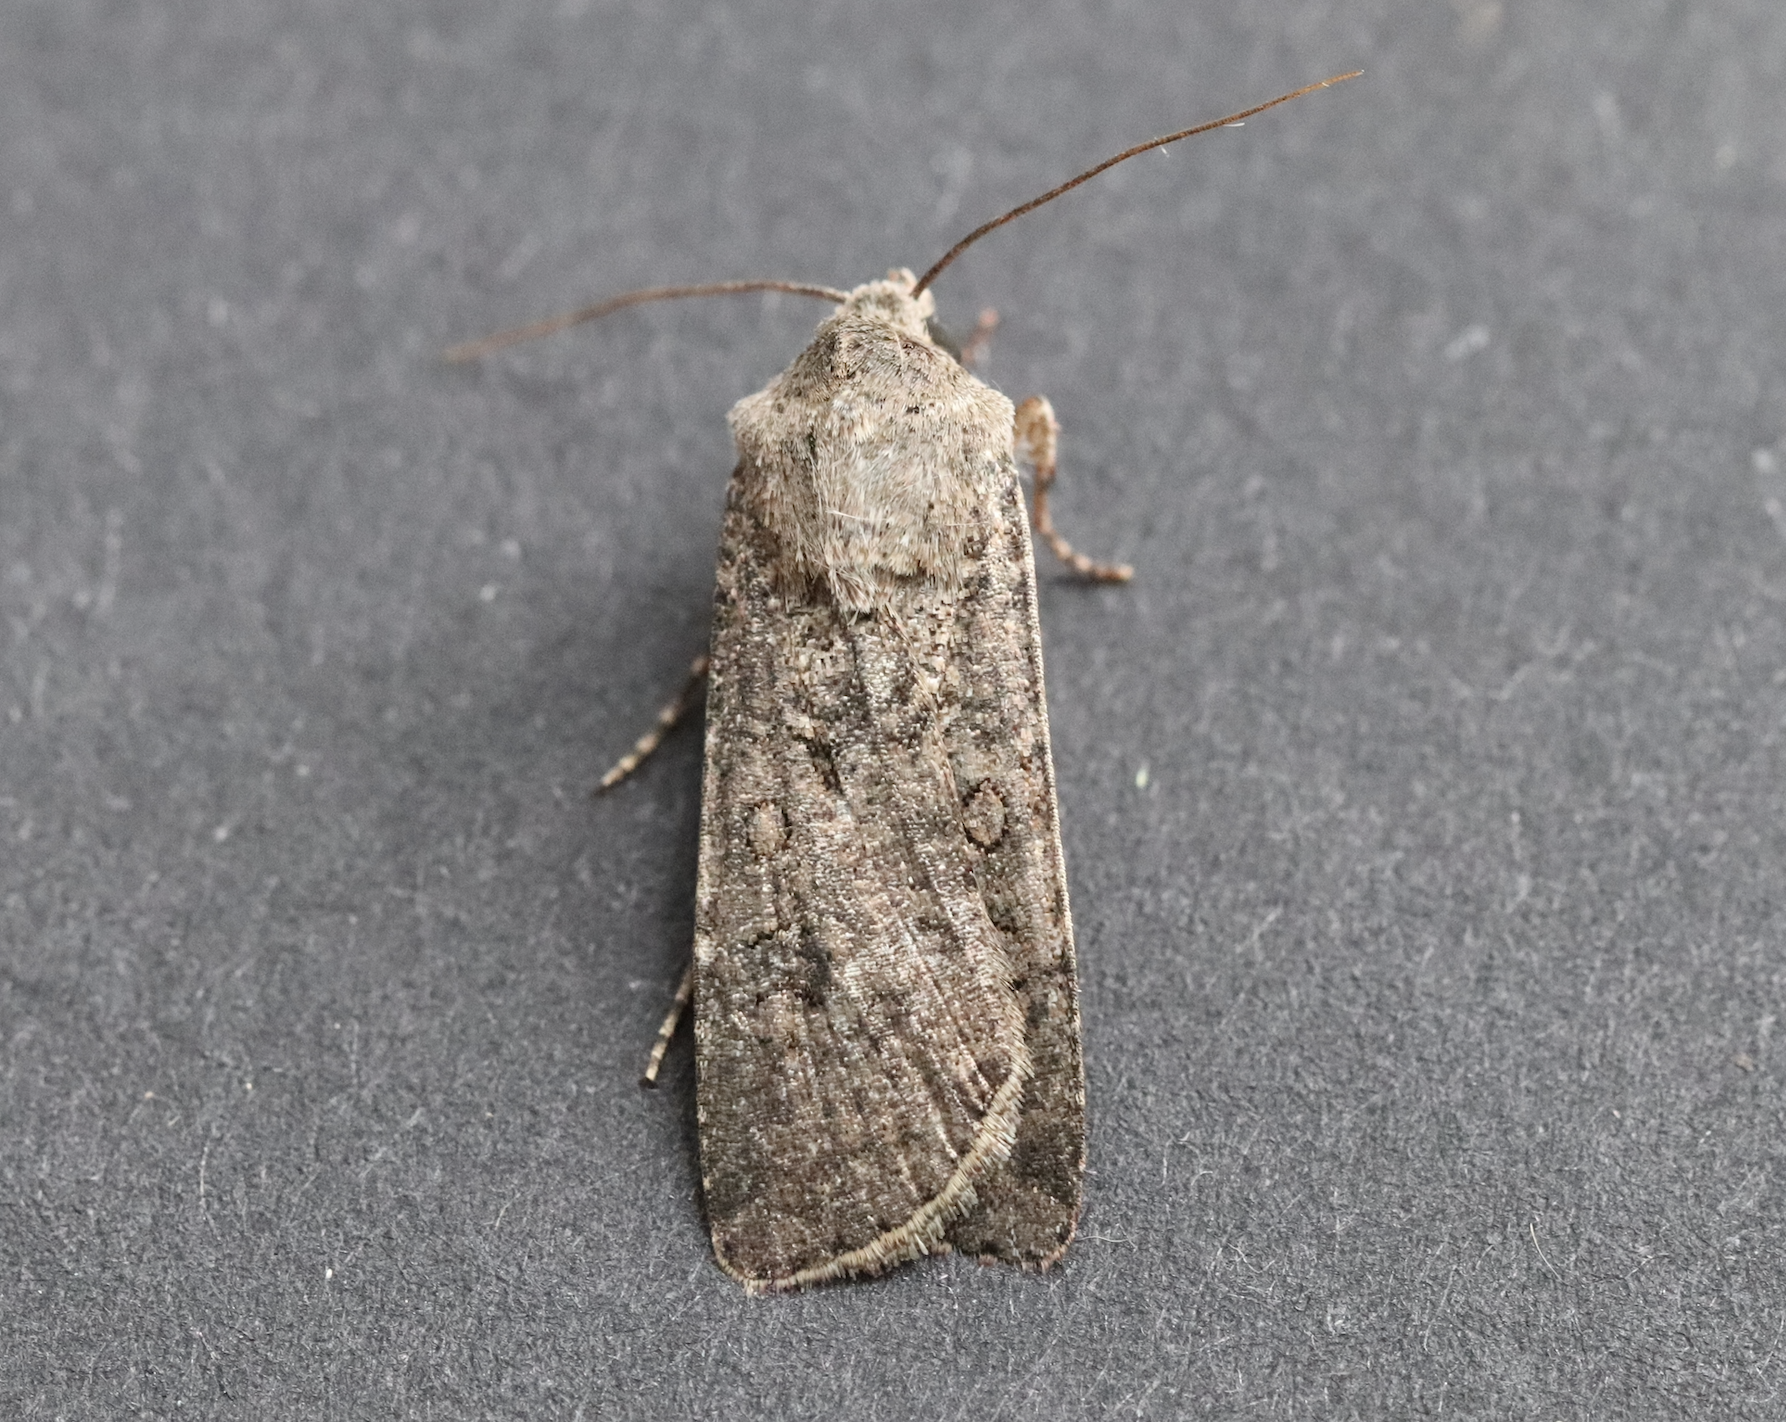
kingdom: Animalia
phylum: Arthropoda
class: Insecta
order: Lepidoptera
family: Noctuidae
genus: Agrotis
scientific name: Agrotis segetum
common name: Turnip moth
